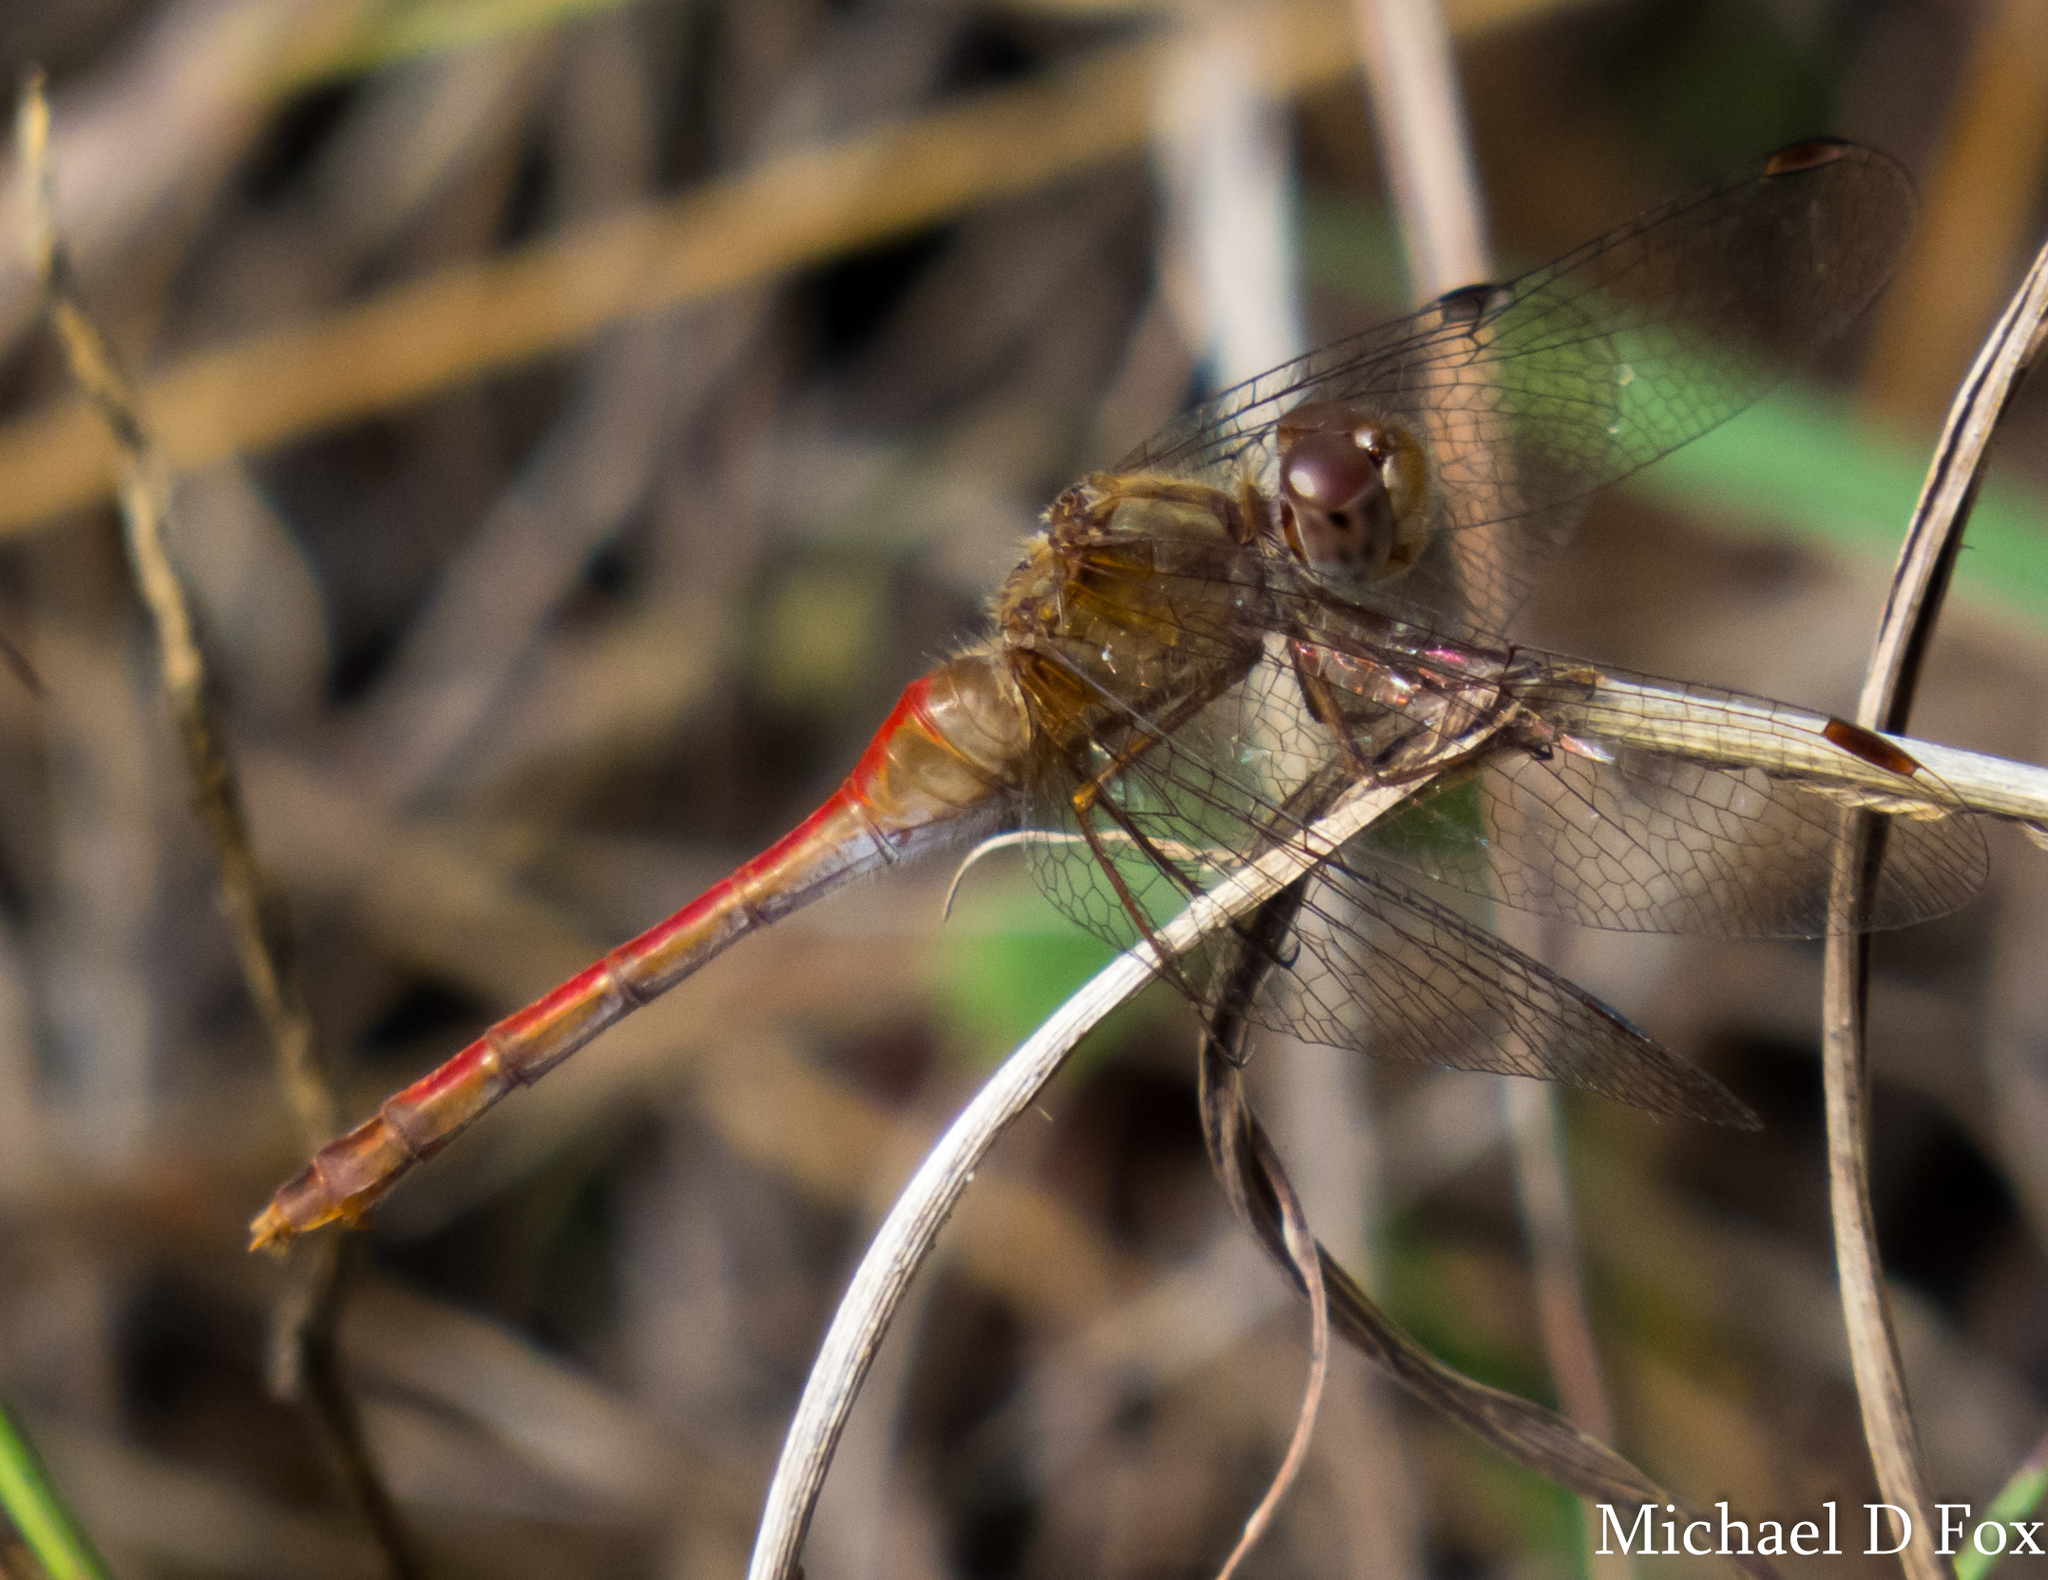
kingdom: Animalia
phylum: Arthropoda
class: Insecta
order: Odonata
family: Libellulidae
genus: Sympetrum
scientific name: Sympetrum vicinum
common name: Autumn meadowhawk
